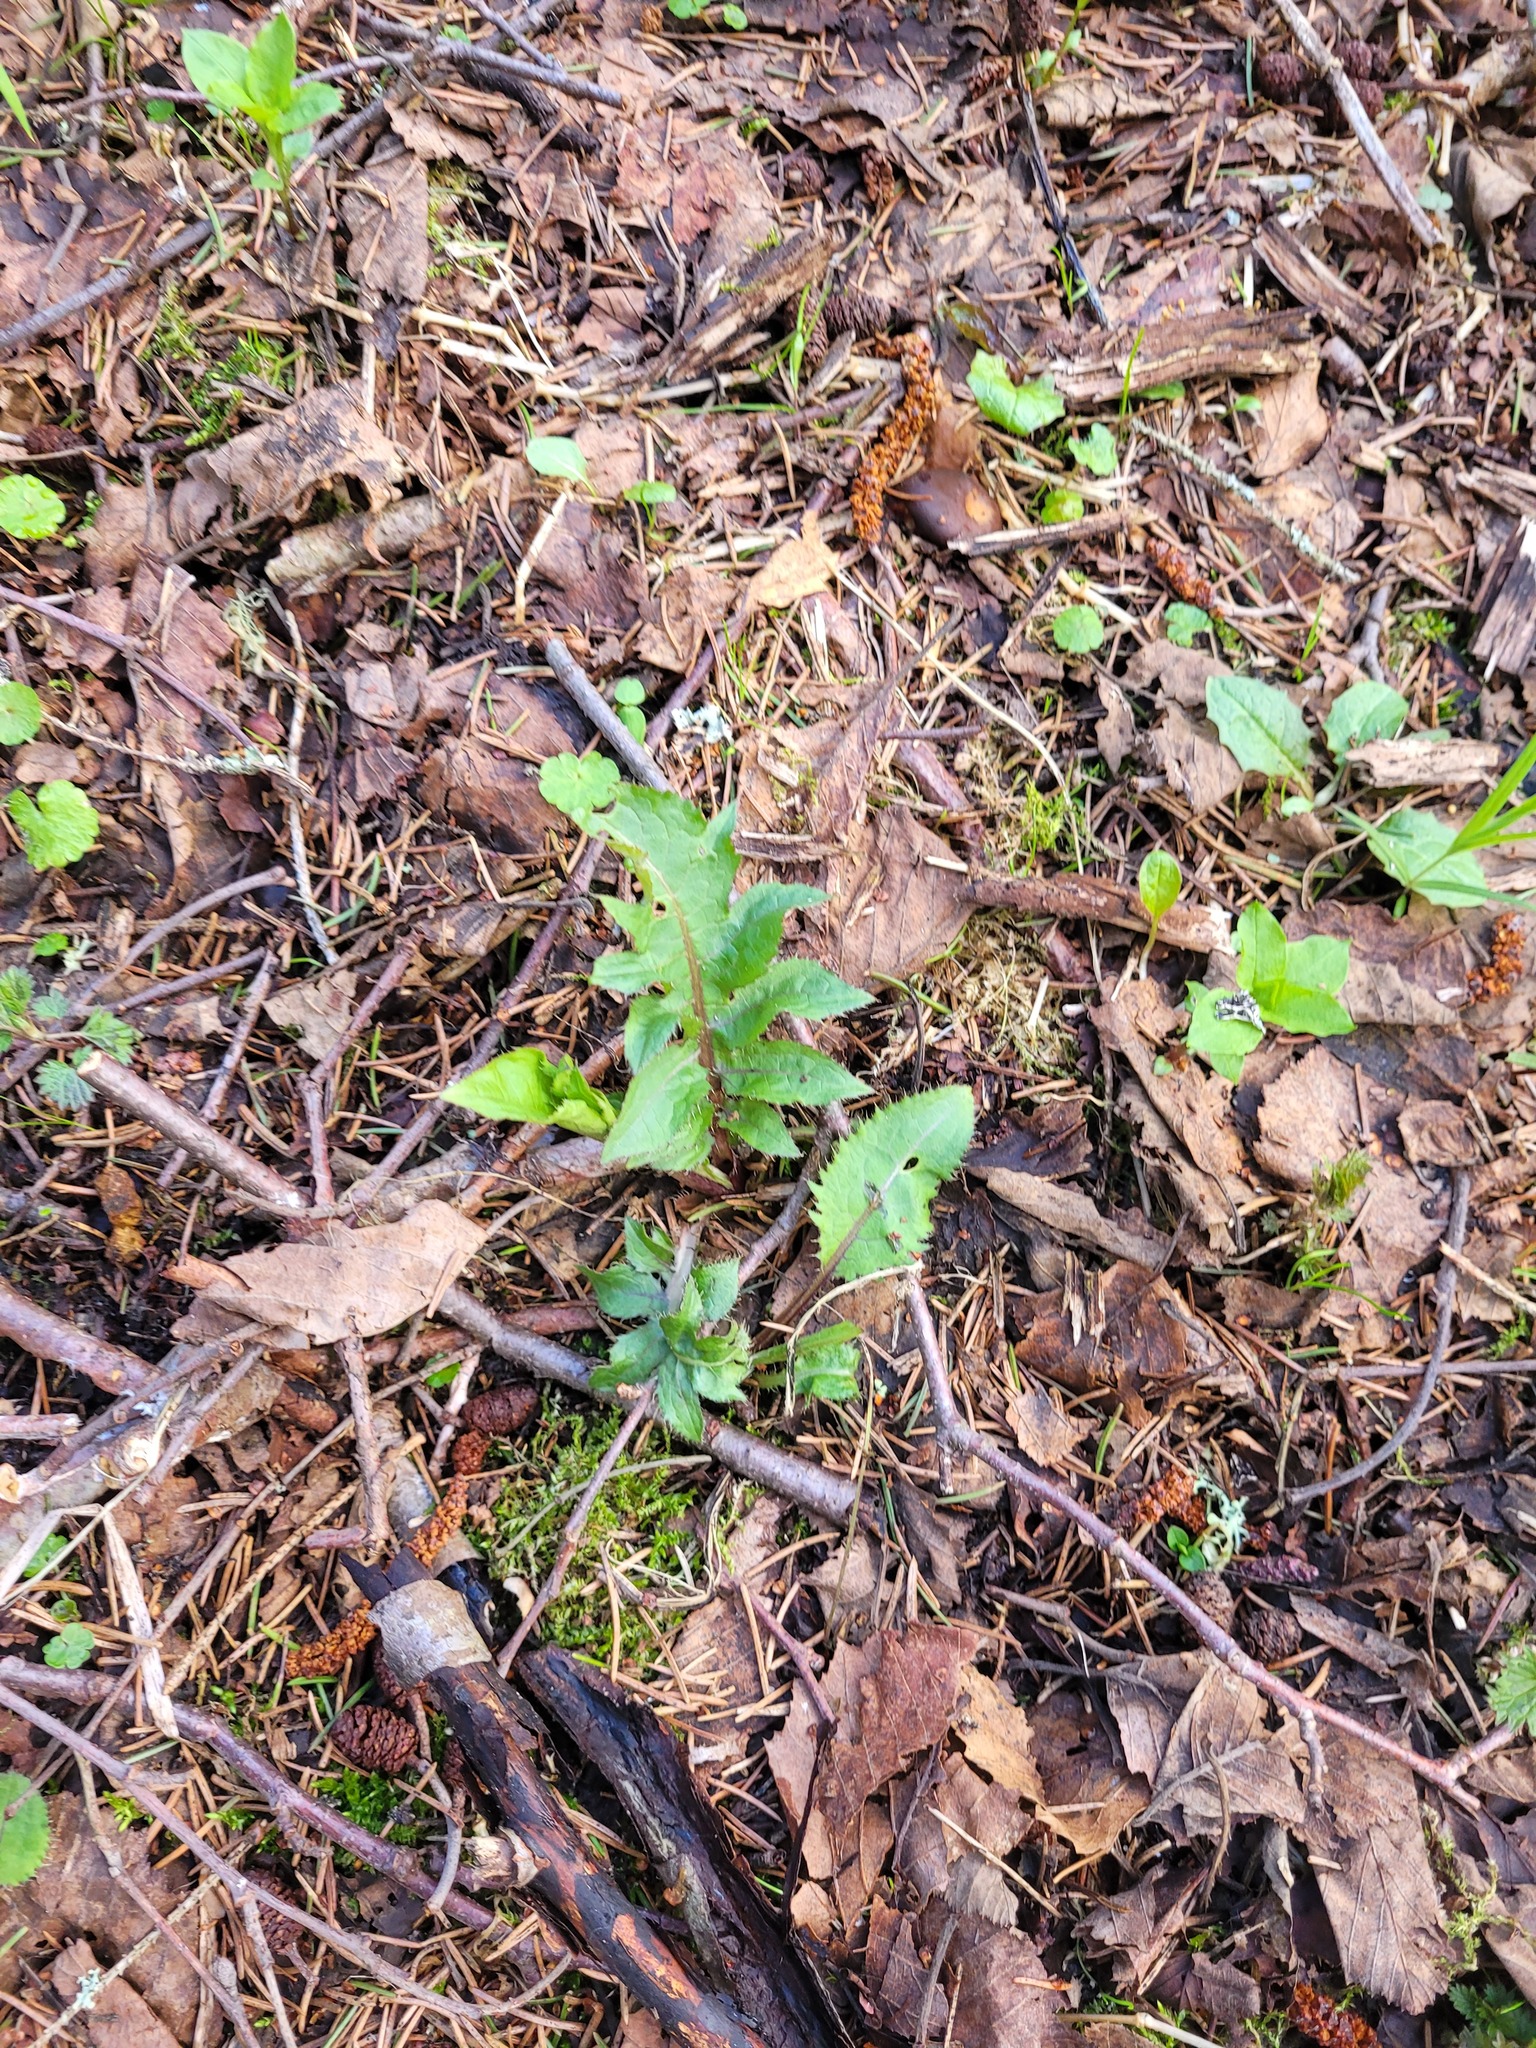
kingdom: Plantae
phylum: Tracheophyta
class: Magnoliopsida
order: Asterales
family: Asteraceae
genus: Cirsium
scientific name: Cirsium oleraceum
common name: Cabbage thistle
